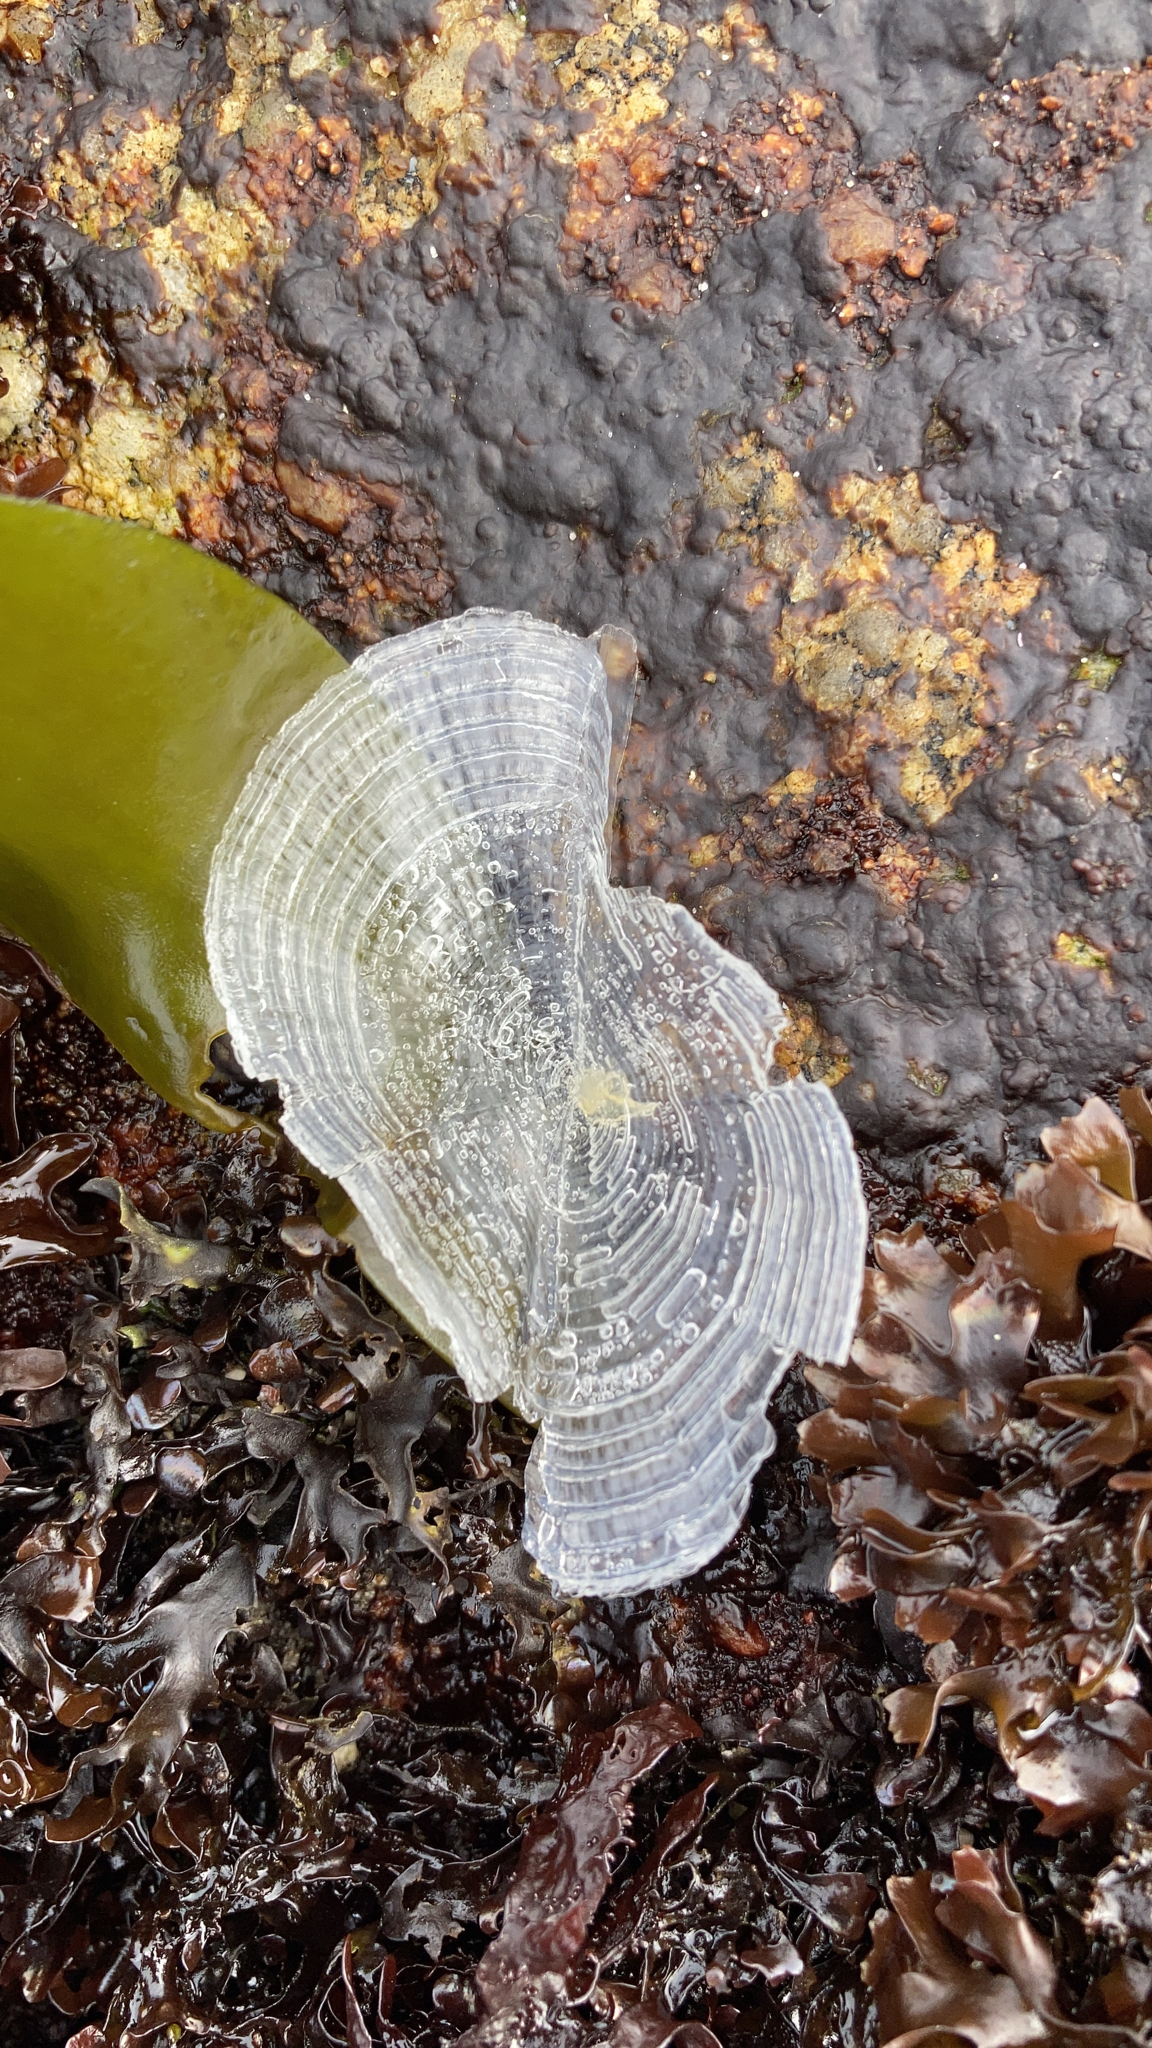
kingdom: Animalia
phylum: Cnidaria
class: Hydrozoa
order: Anthoathecata
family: Porpitidae
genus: Velella
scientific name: Velella velella
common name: By-the-wind-sailor
